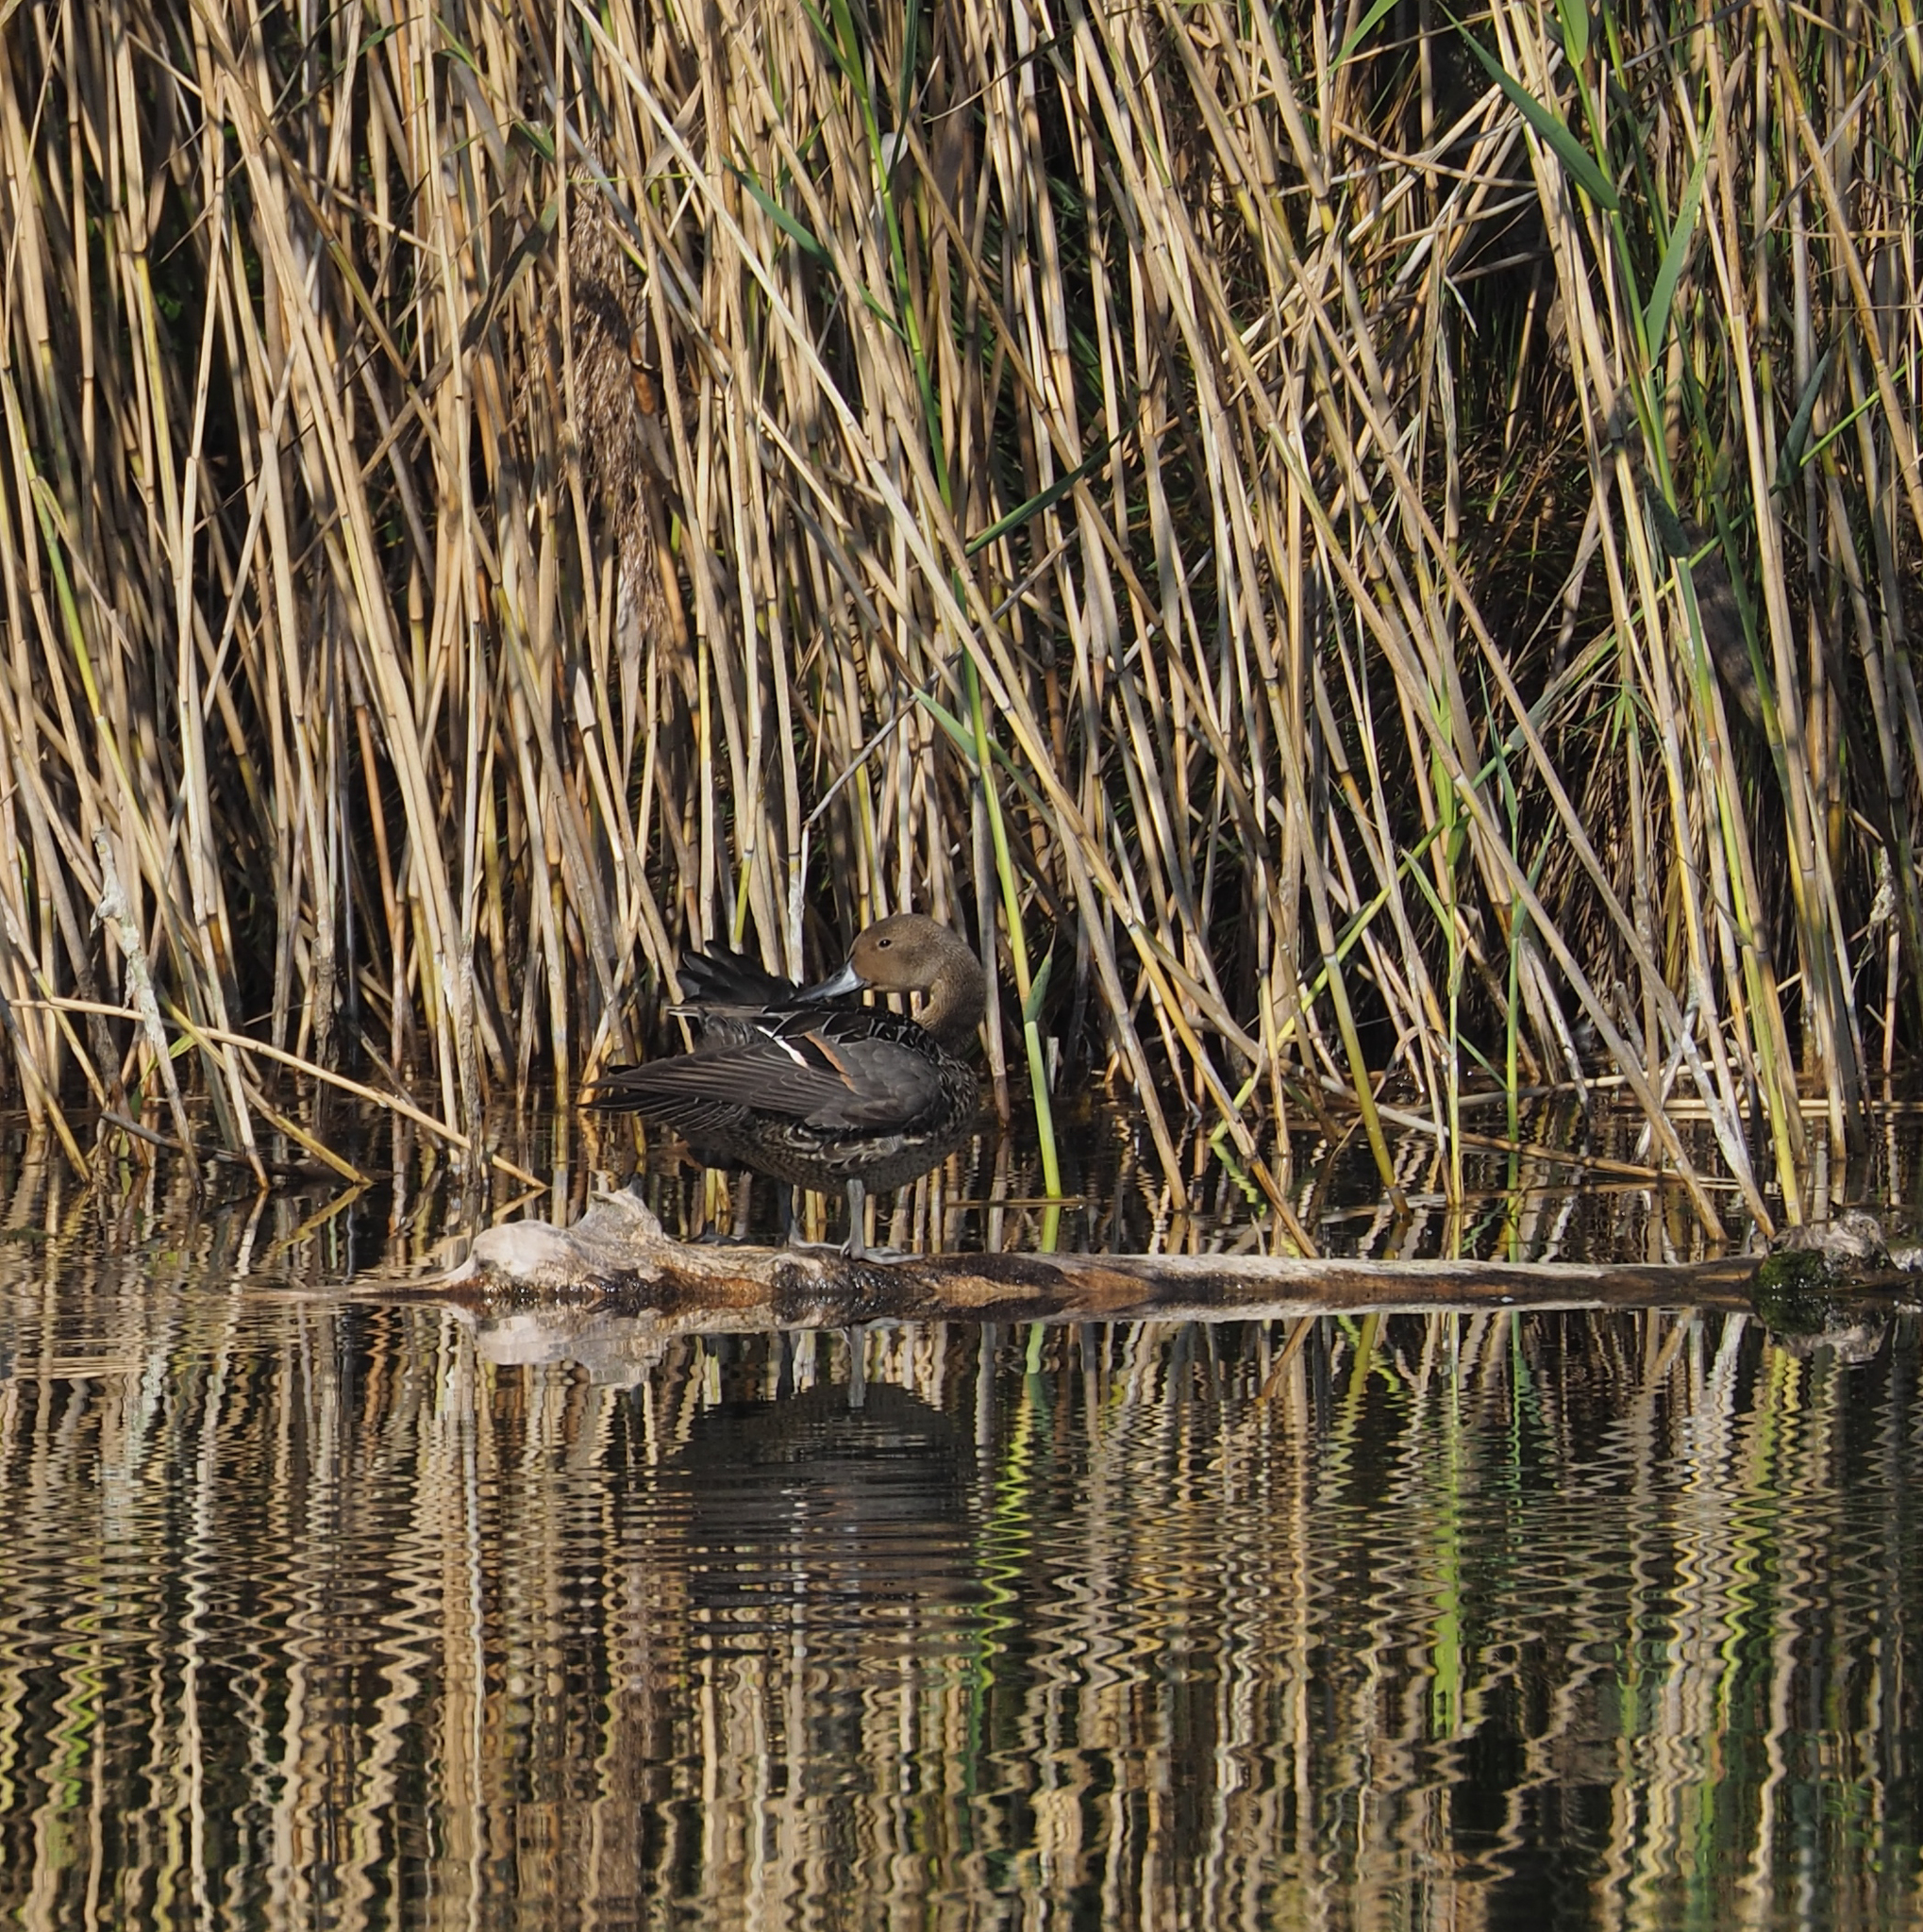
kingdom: Animalia
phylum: Chordata
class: Aves
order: Anseriformes
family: Anatidae
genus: Anas
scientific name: Anas acuta
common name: Northern pintail
